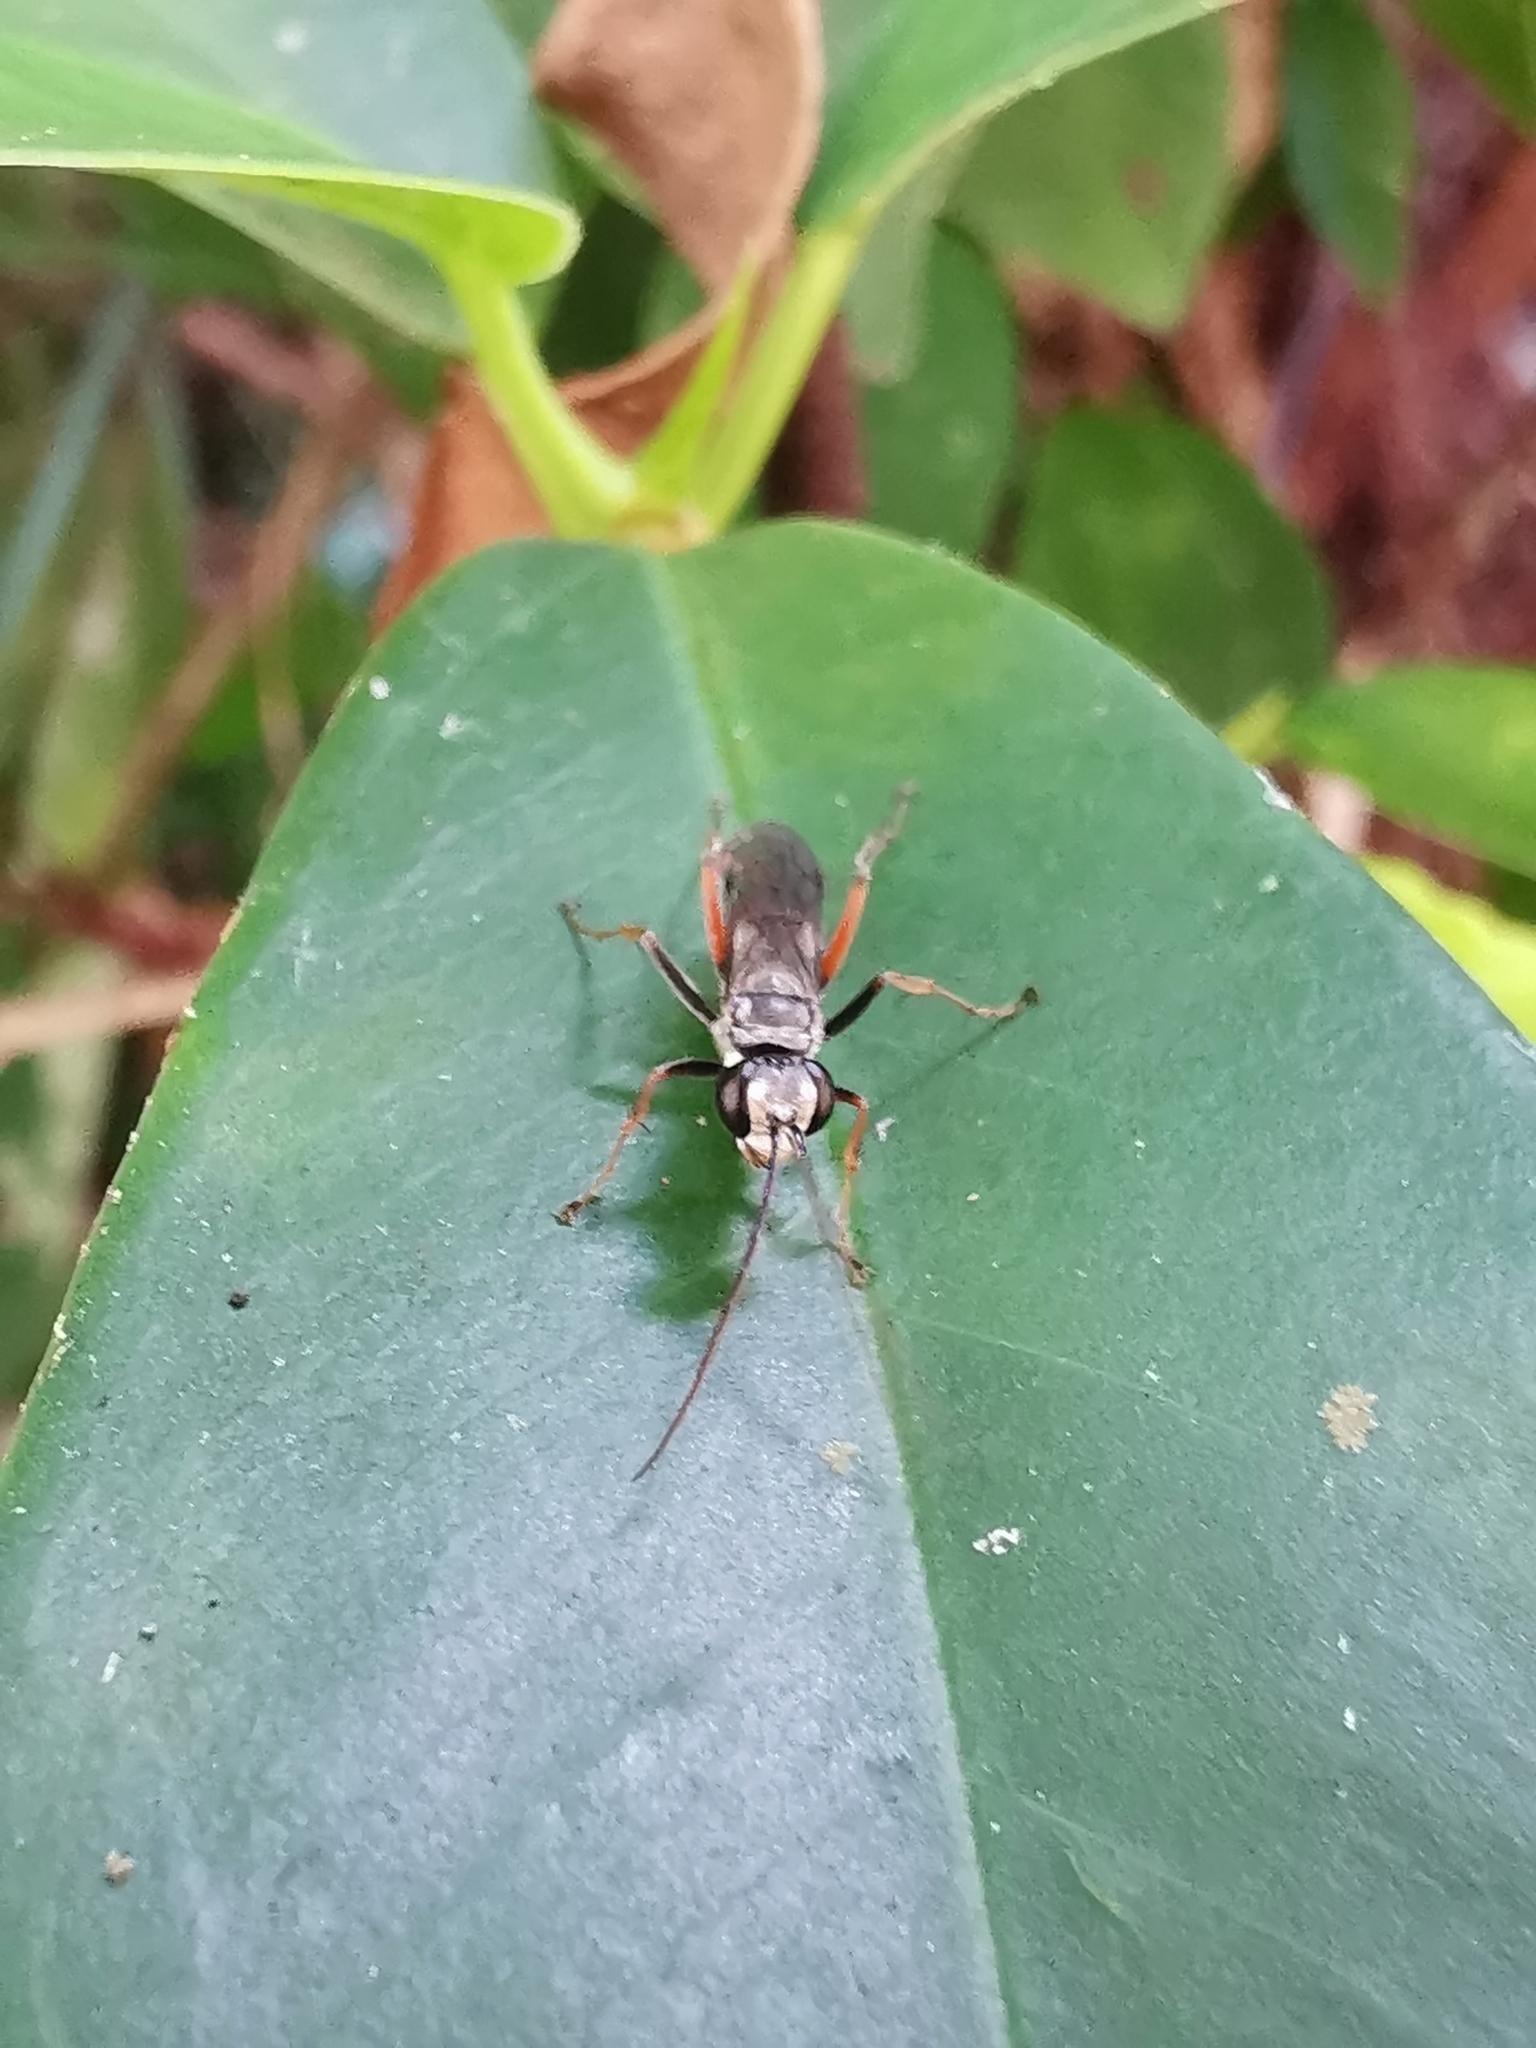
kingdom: Animalia
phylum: Arthropoda
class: Insecta
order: Hymenoptera
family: Pompilidae
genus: Paragenia
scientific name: Paragenia argentifrons
